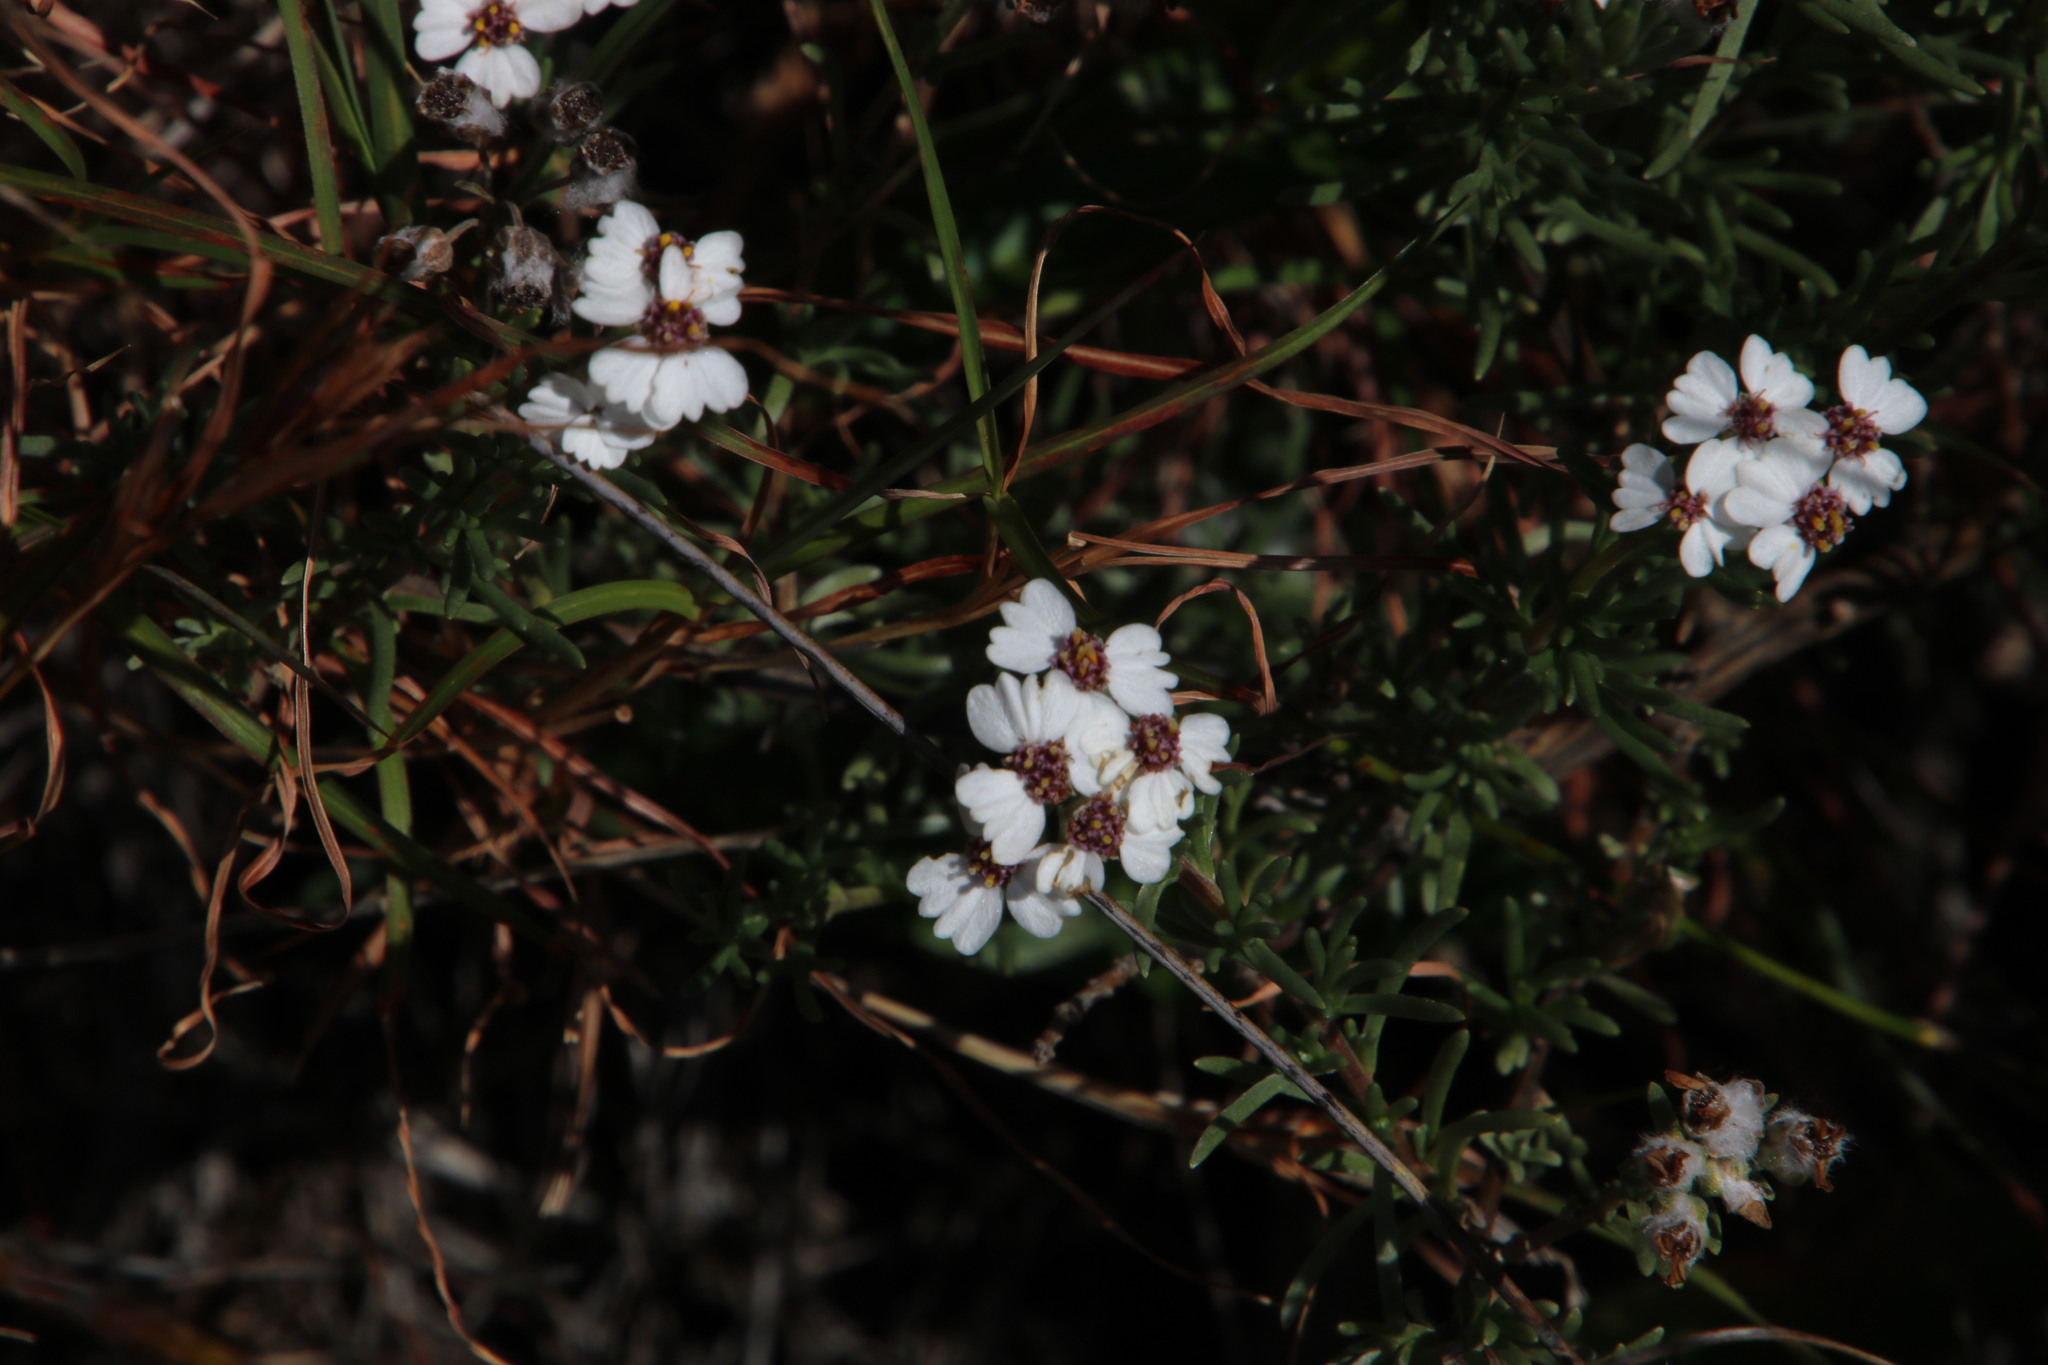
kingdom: Plantae
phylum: Tracheophyta
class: Magnoliopsida
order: Asterales
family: Asteraceae
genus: Eriocephalus
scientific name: Eriocephalus africanus
